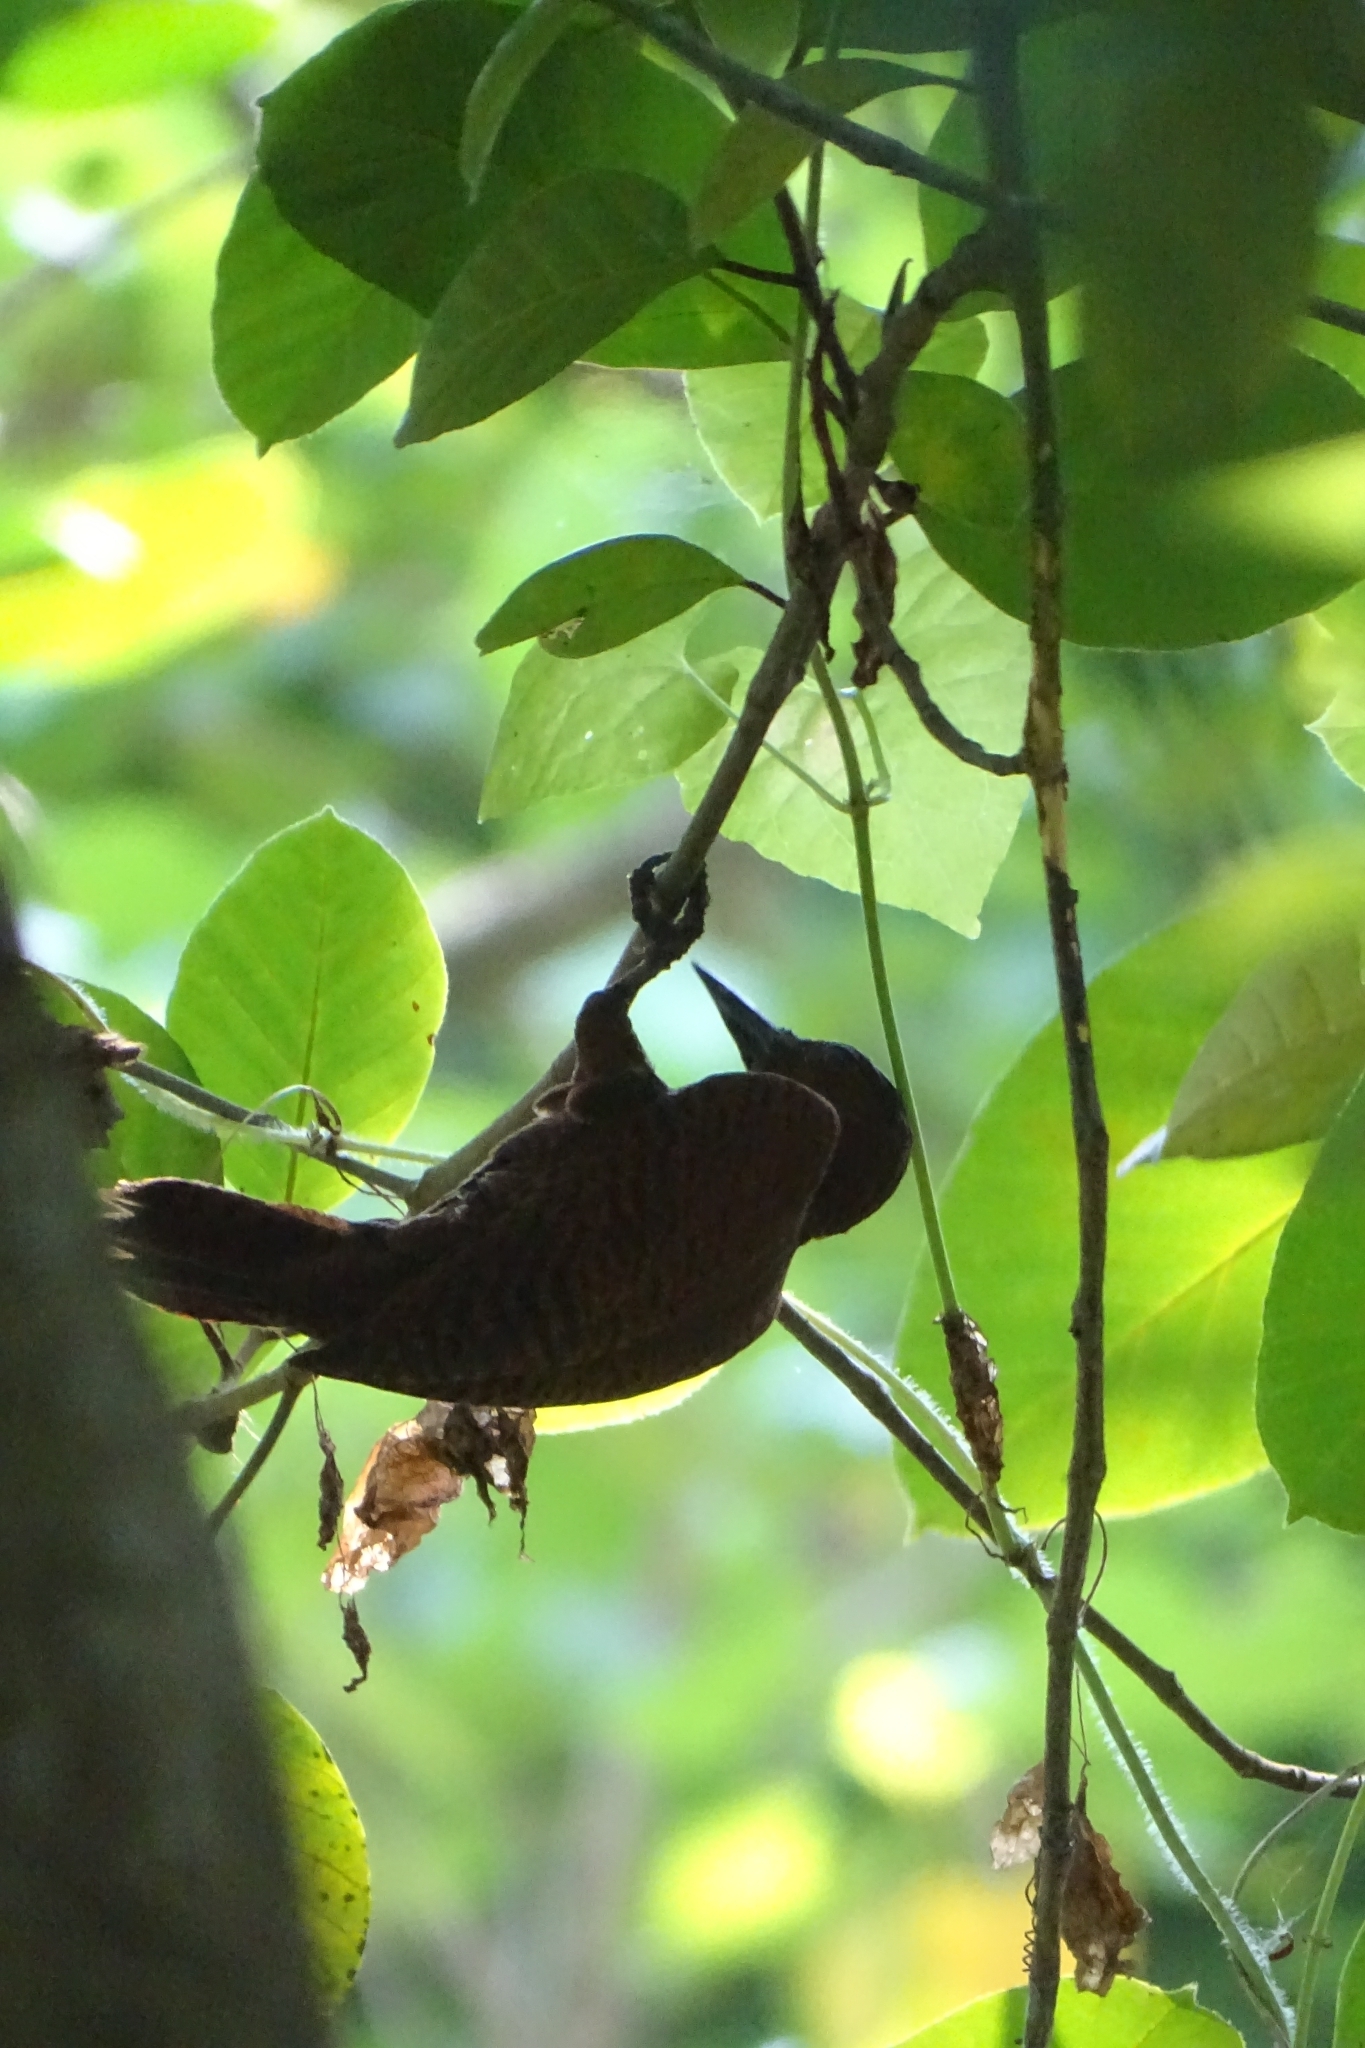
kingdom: Animalia
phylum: Chordata
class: Aves
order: Piciformes
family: Picidae
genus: Micropternus
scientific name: Micropternus brachyurus
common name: Rufous woodpecker
